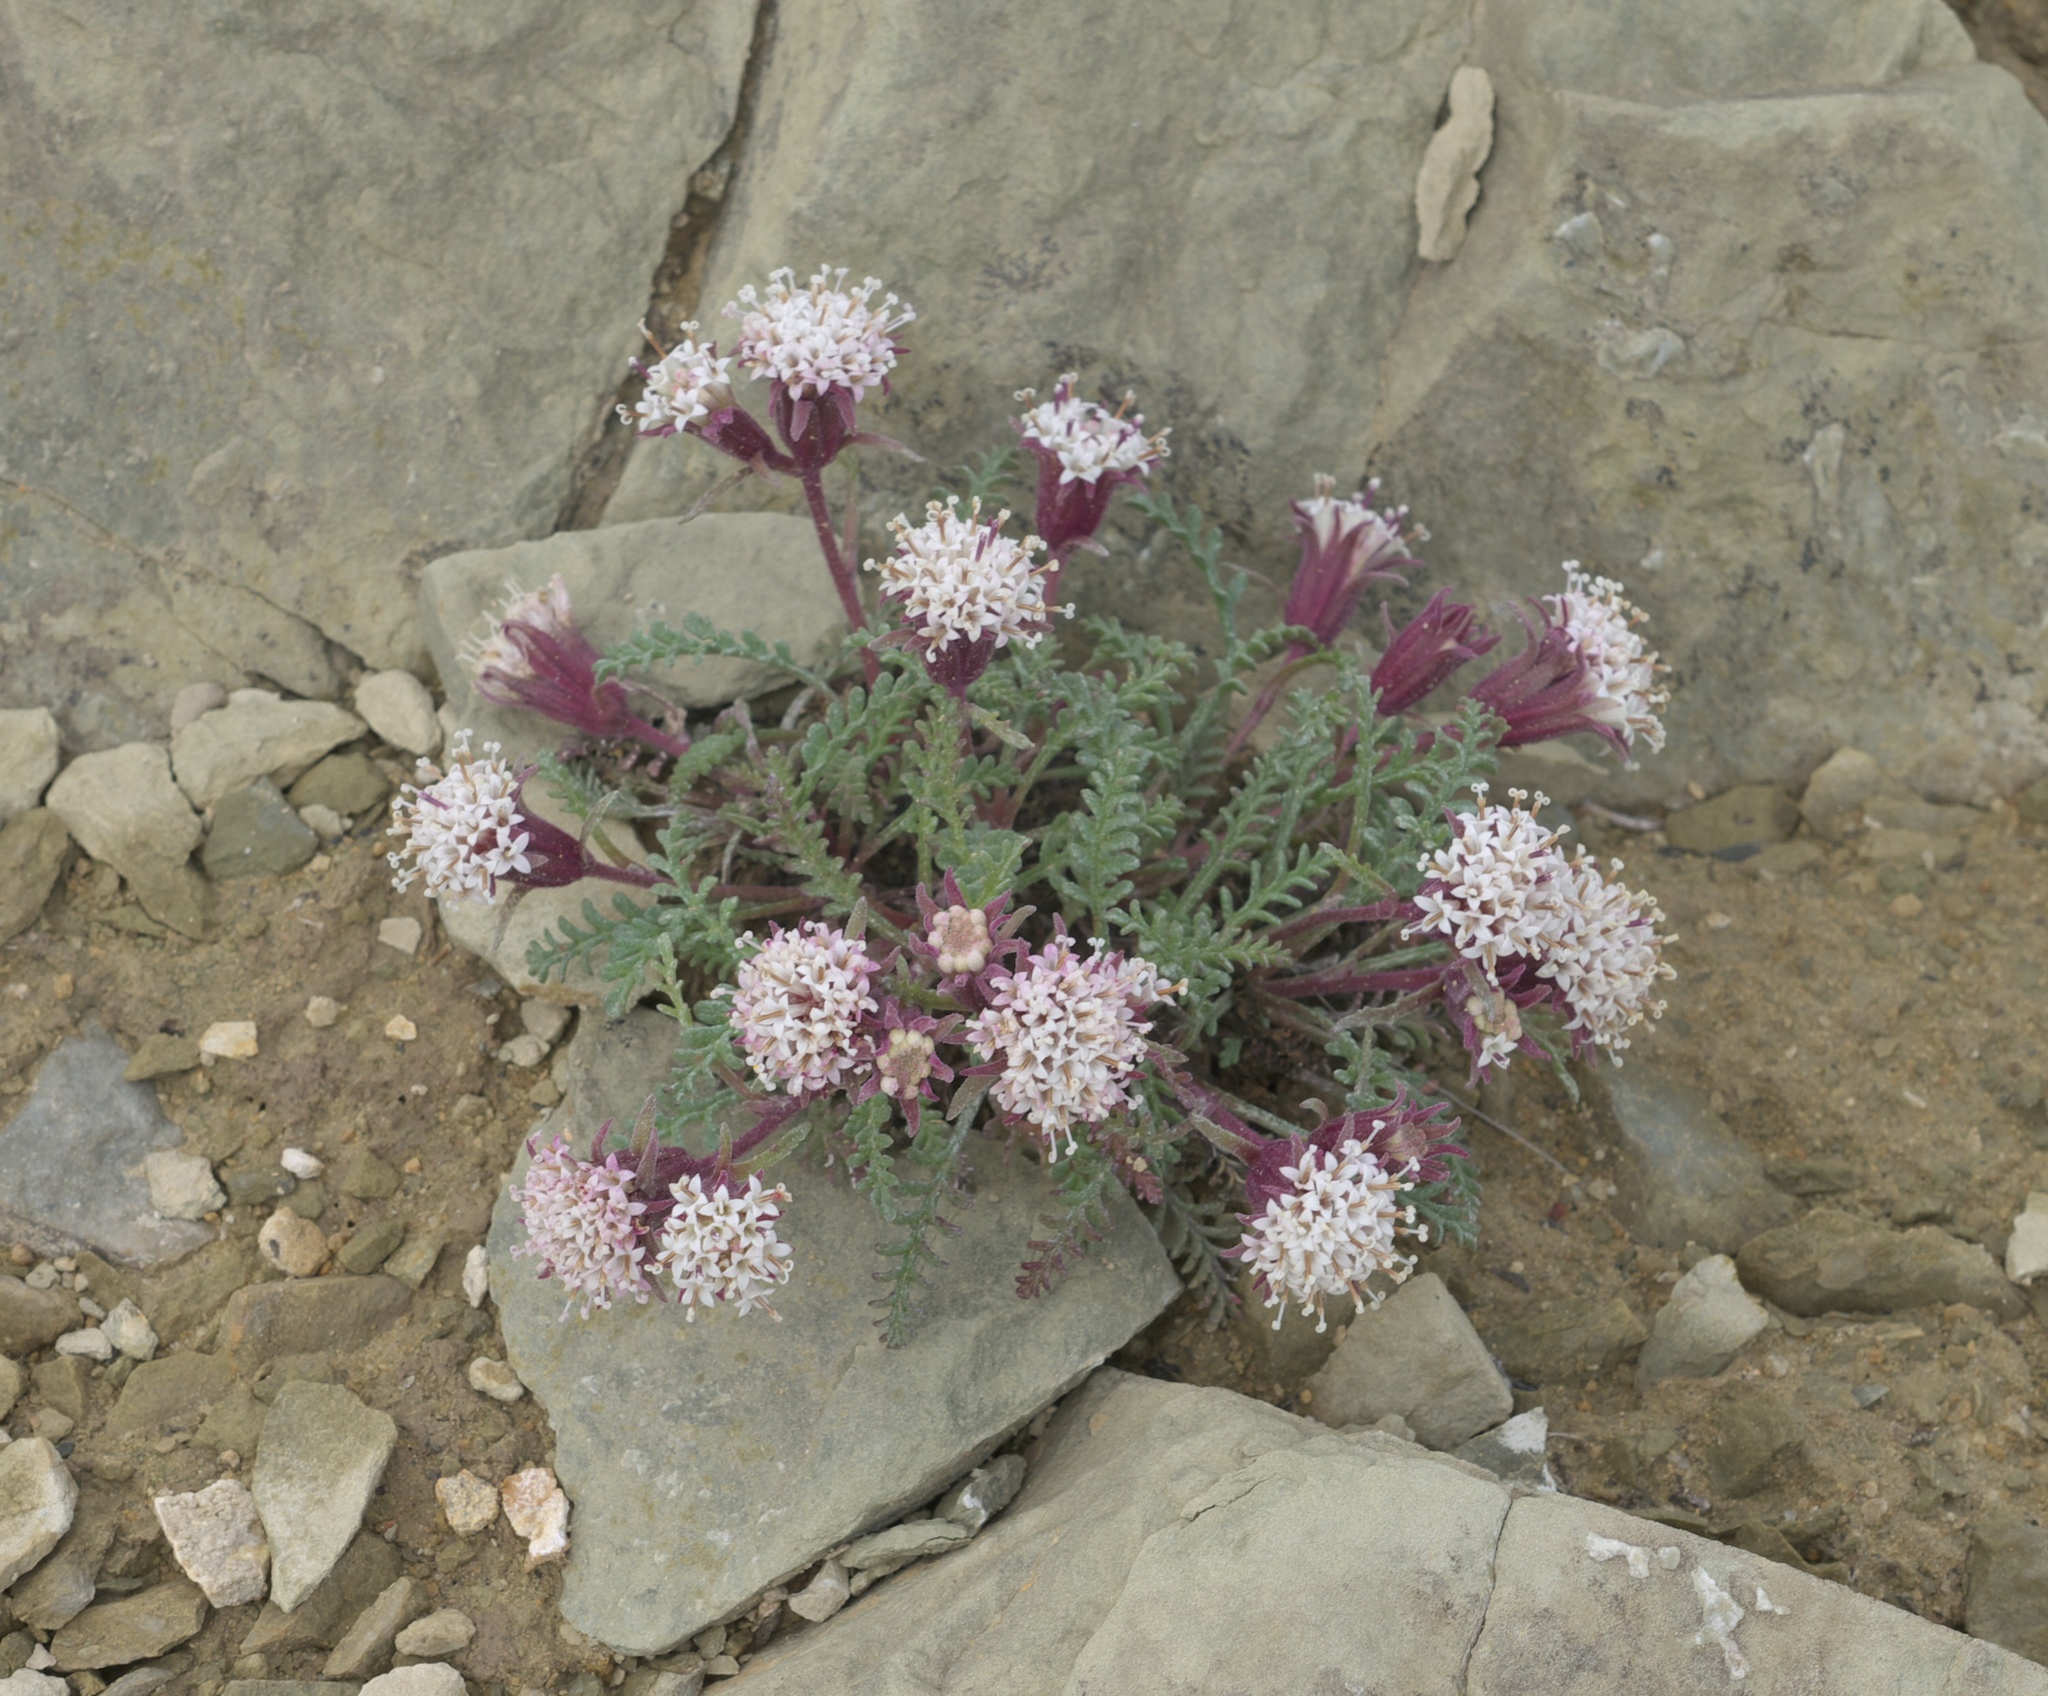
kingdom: Plantae
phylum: Tracheophyta
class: Magnoliopsida
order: Asterales
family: Asteraceae
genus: Chaenactis
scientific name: Chaenactis douglasii
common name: Hoary pincushion
